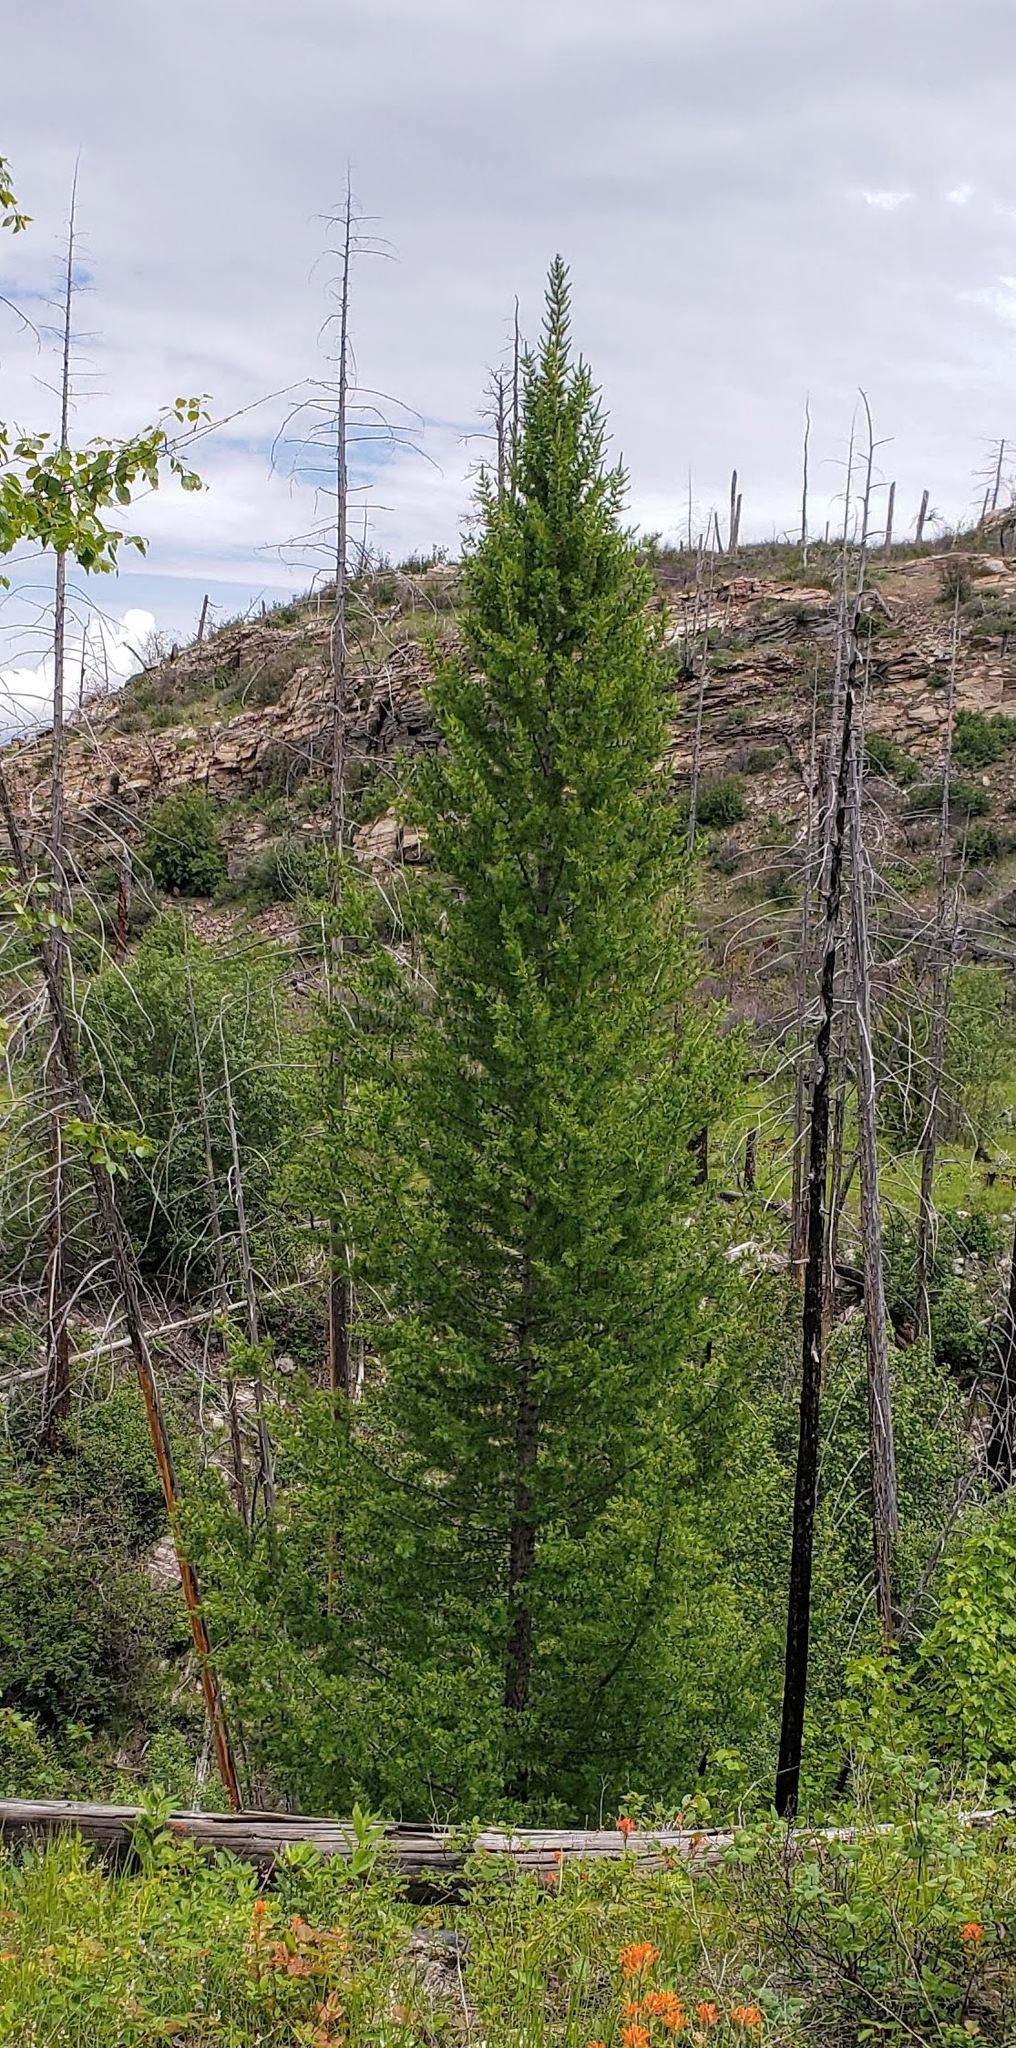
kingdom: Plantae
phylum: Tracheophyta
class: Pinopsida
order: Pinales
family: Pinaceae
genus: Larix
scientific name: Larix occidentalis
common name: Western larch
